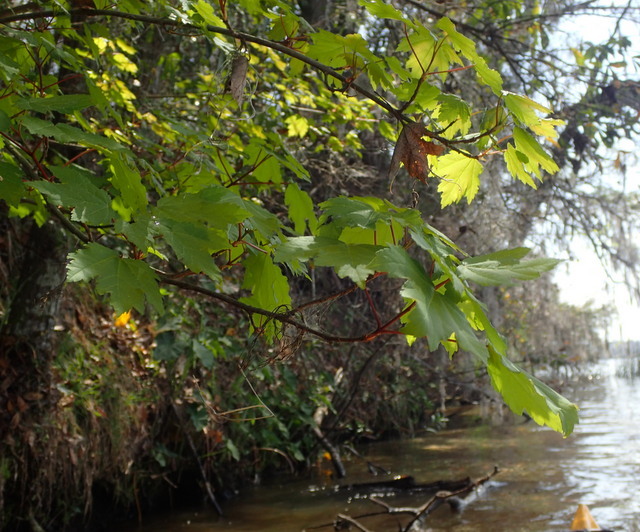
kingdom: Plantae
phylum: Tracheophyta
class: Magnoliopsida
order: Sapindales
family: Sapindaceae
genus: Acer
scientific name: Acer rubrum
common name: Red maple
